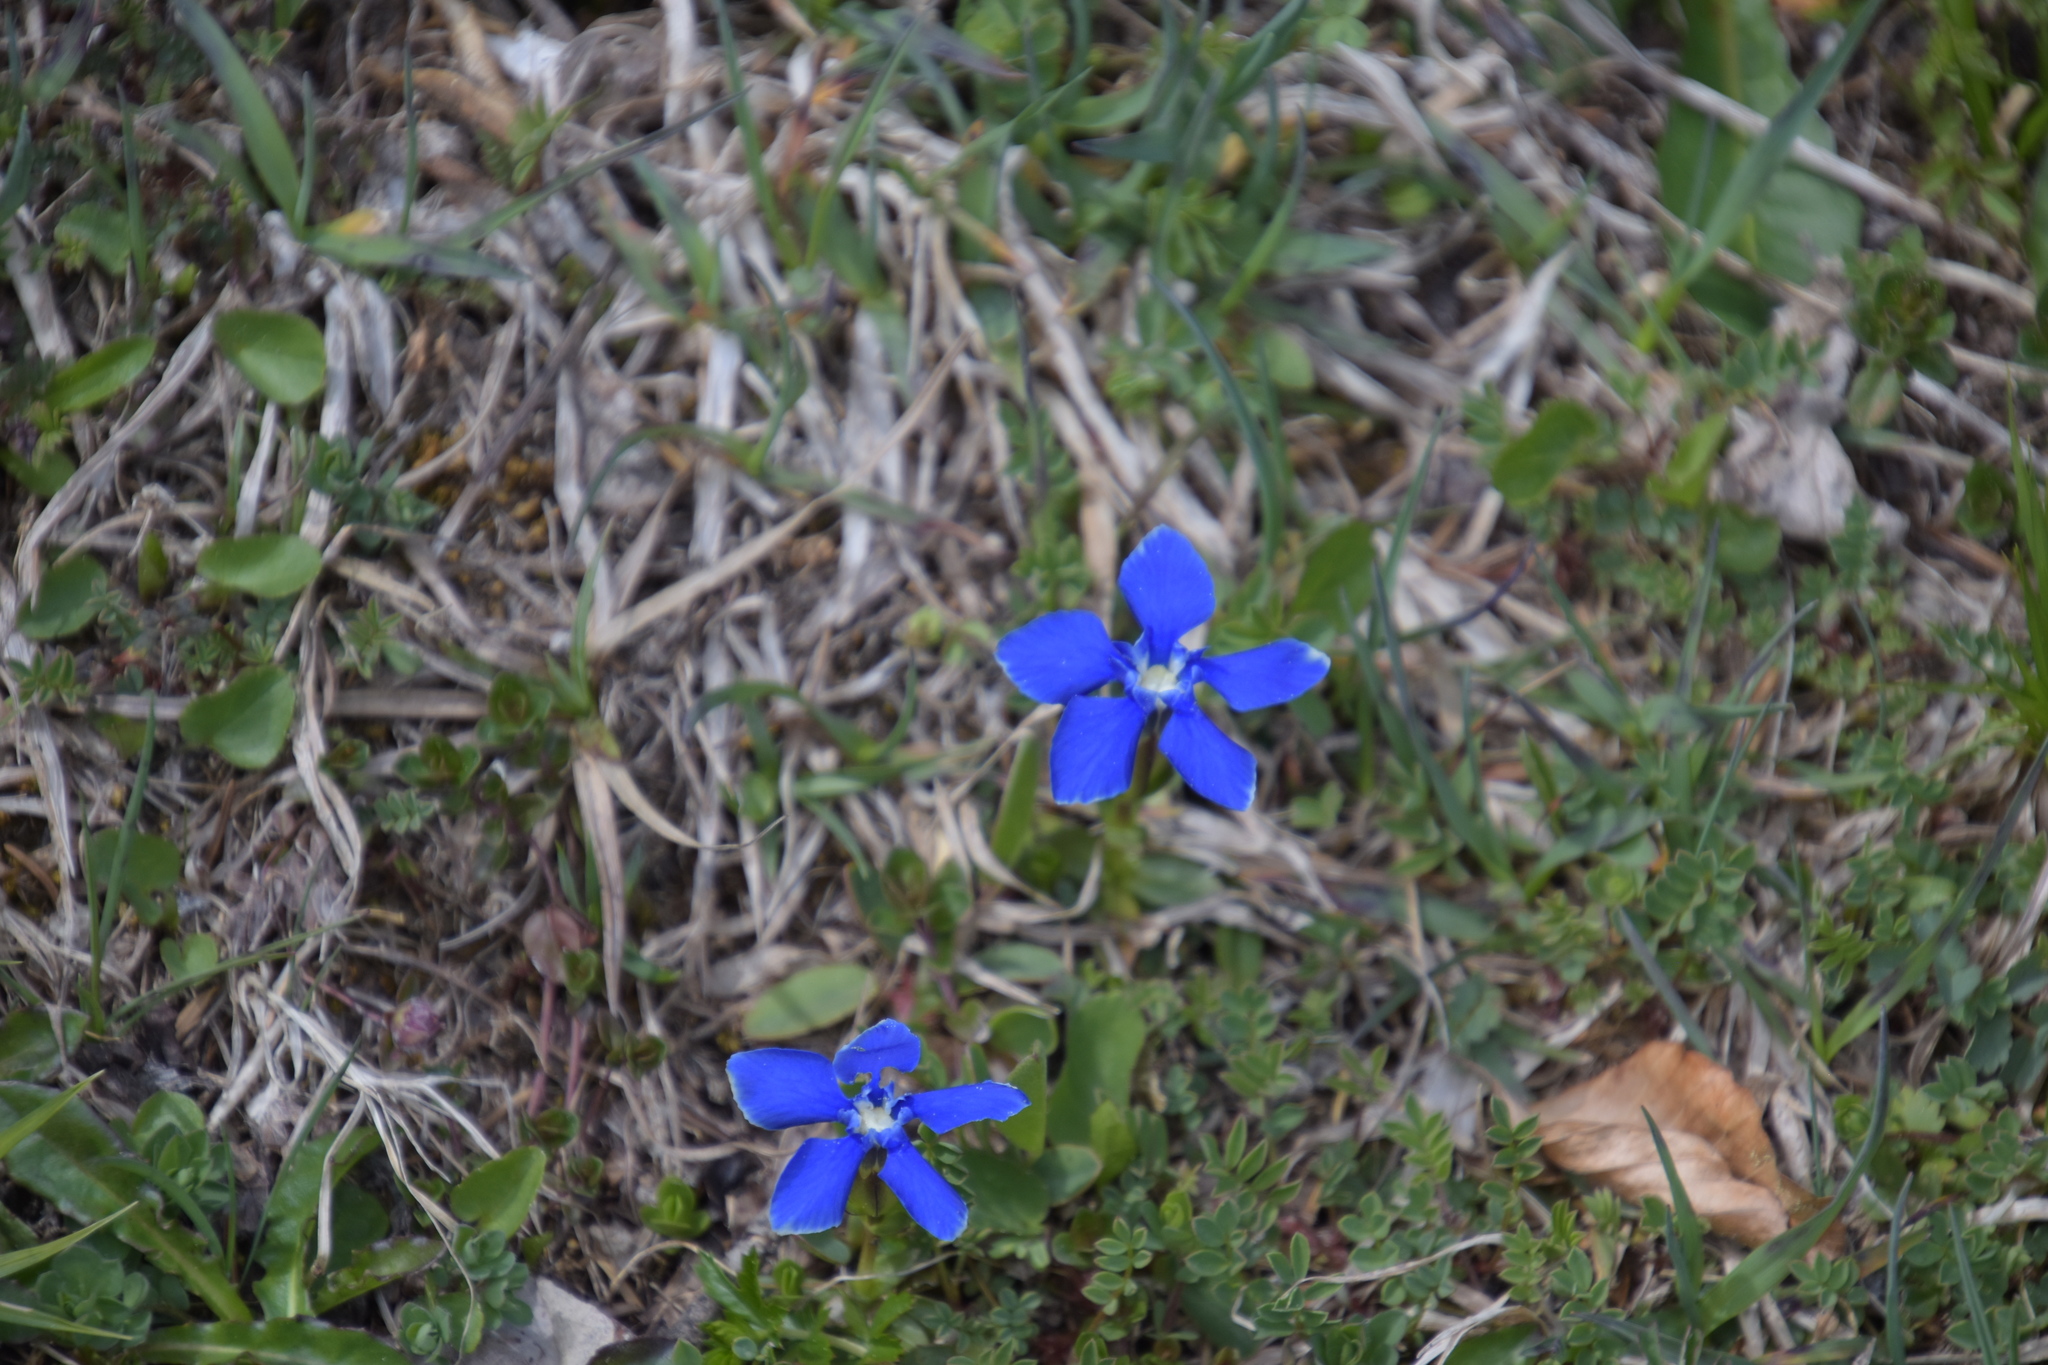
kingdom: Plantae
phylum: Tracheophyta
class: Magnoliopsida
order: Gentianales
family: Gentianaceae
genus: Gentiana
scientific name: Gentiana verna
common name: Spring gentian
